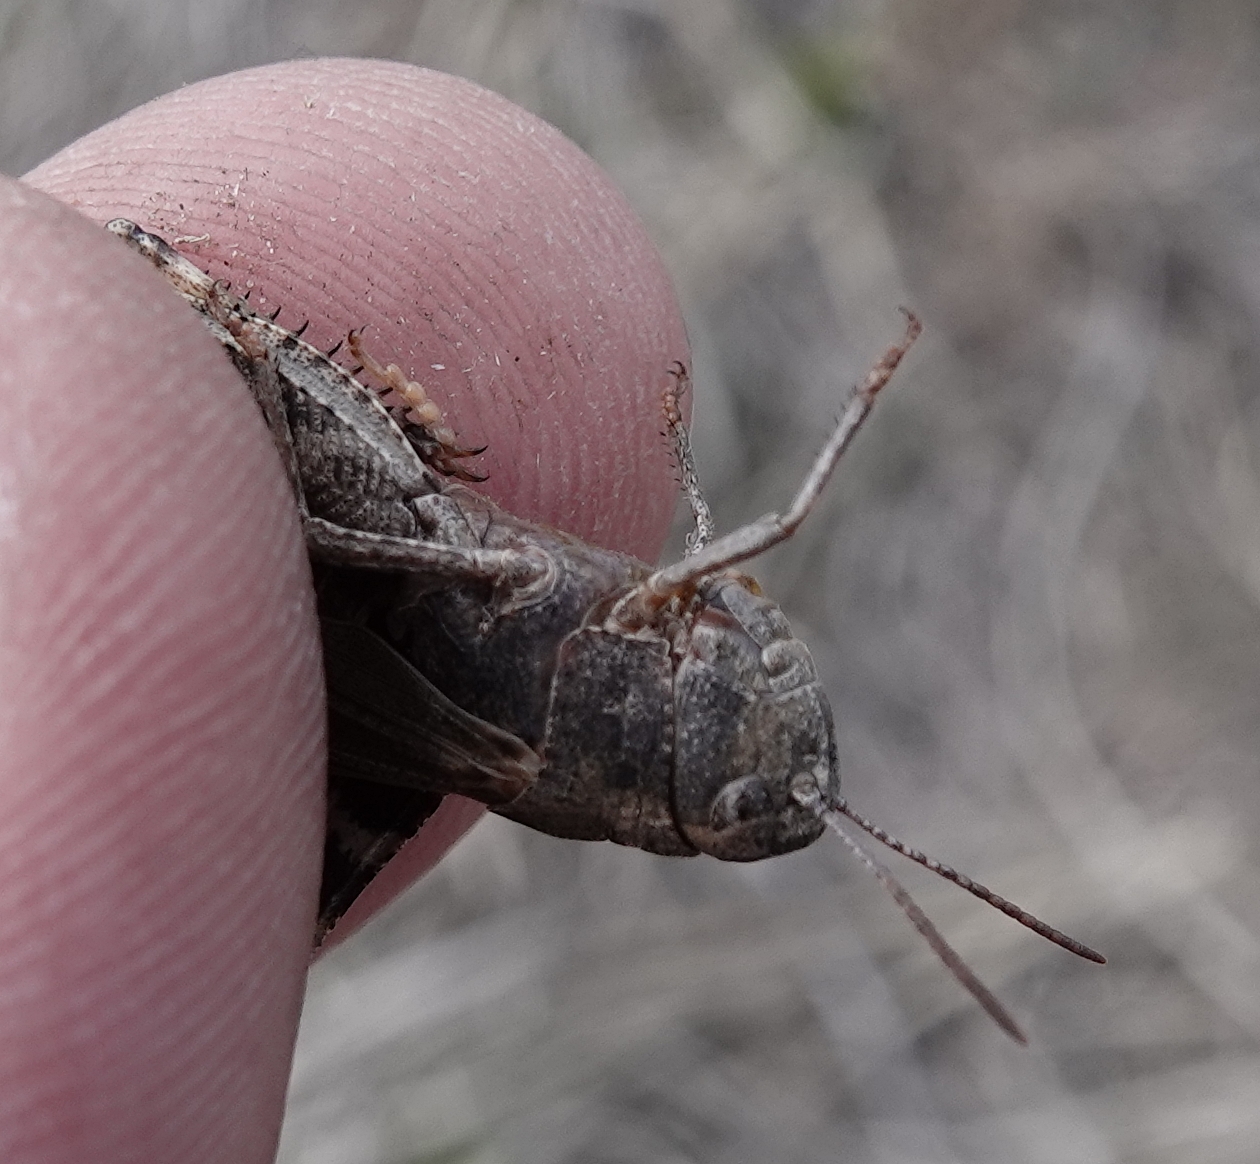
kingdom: Animalia
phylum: Arthropoda
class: Insecta
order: Orthoptera
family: Acrididae
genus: Arphia
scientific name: Arphia conspersa
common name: Speckle-winged rangeland grasshopper
